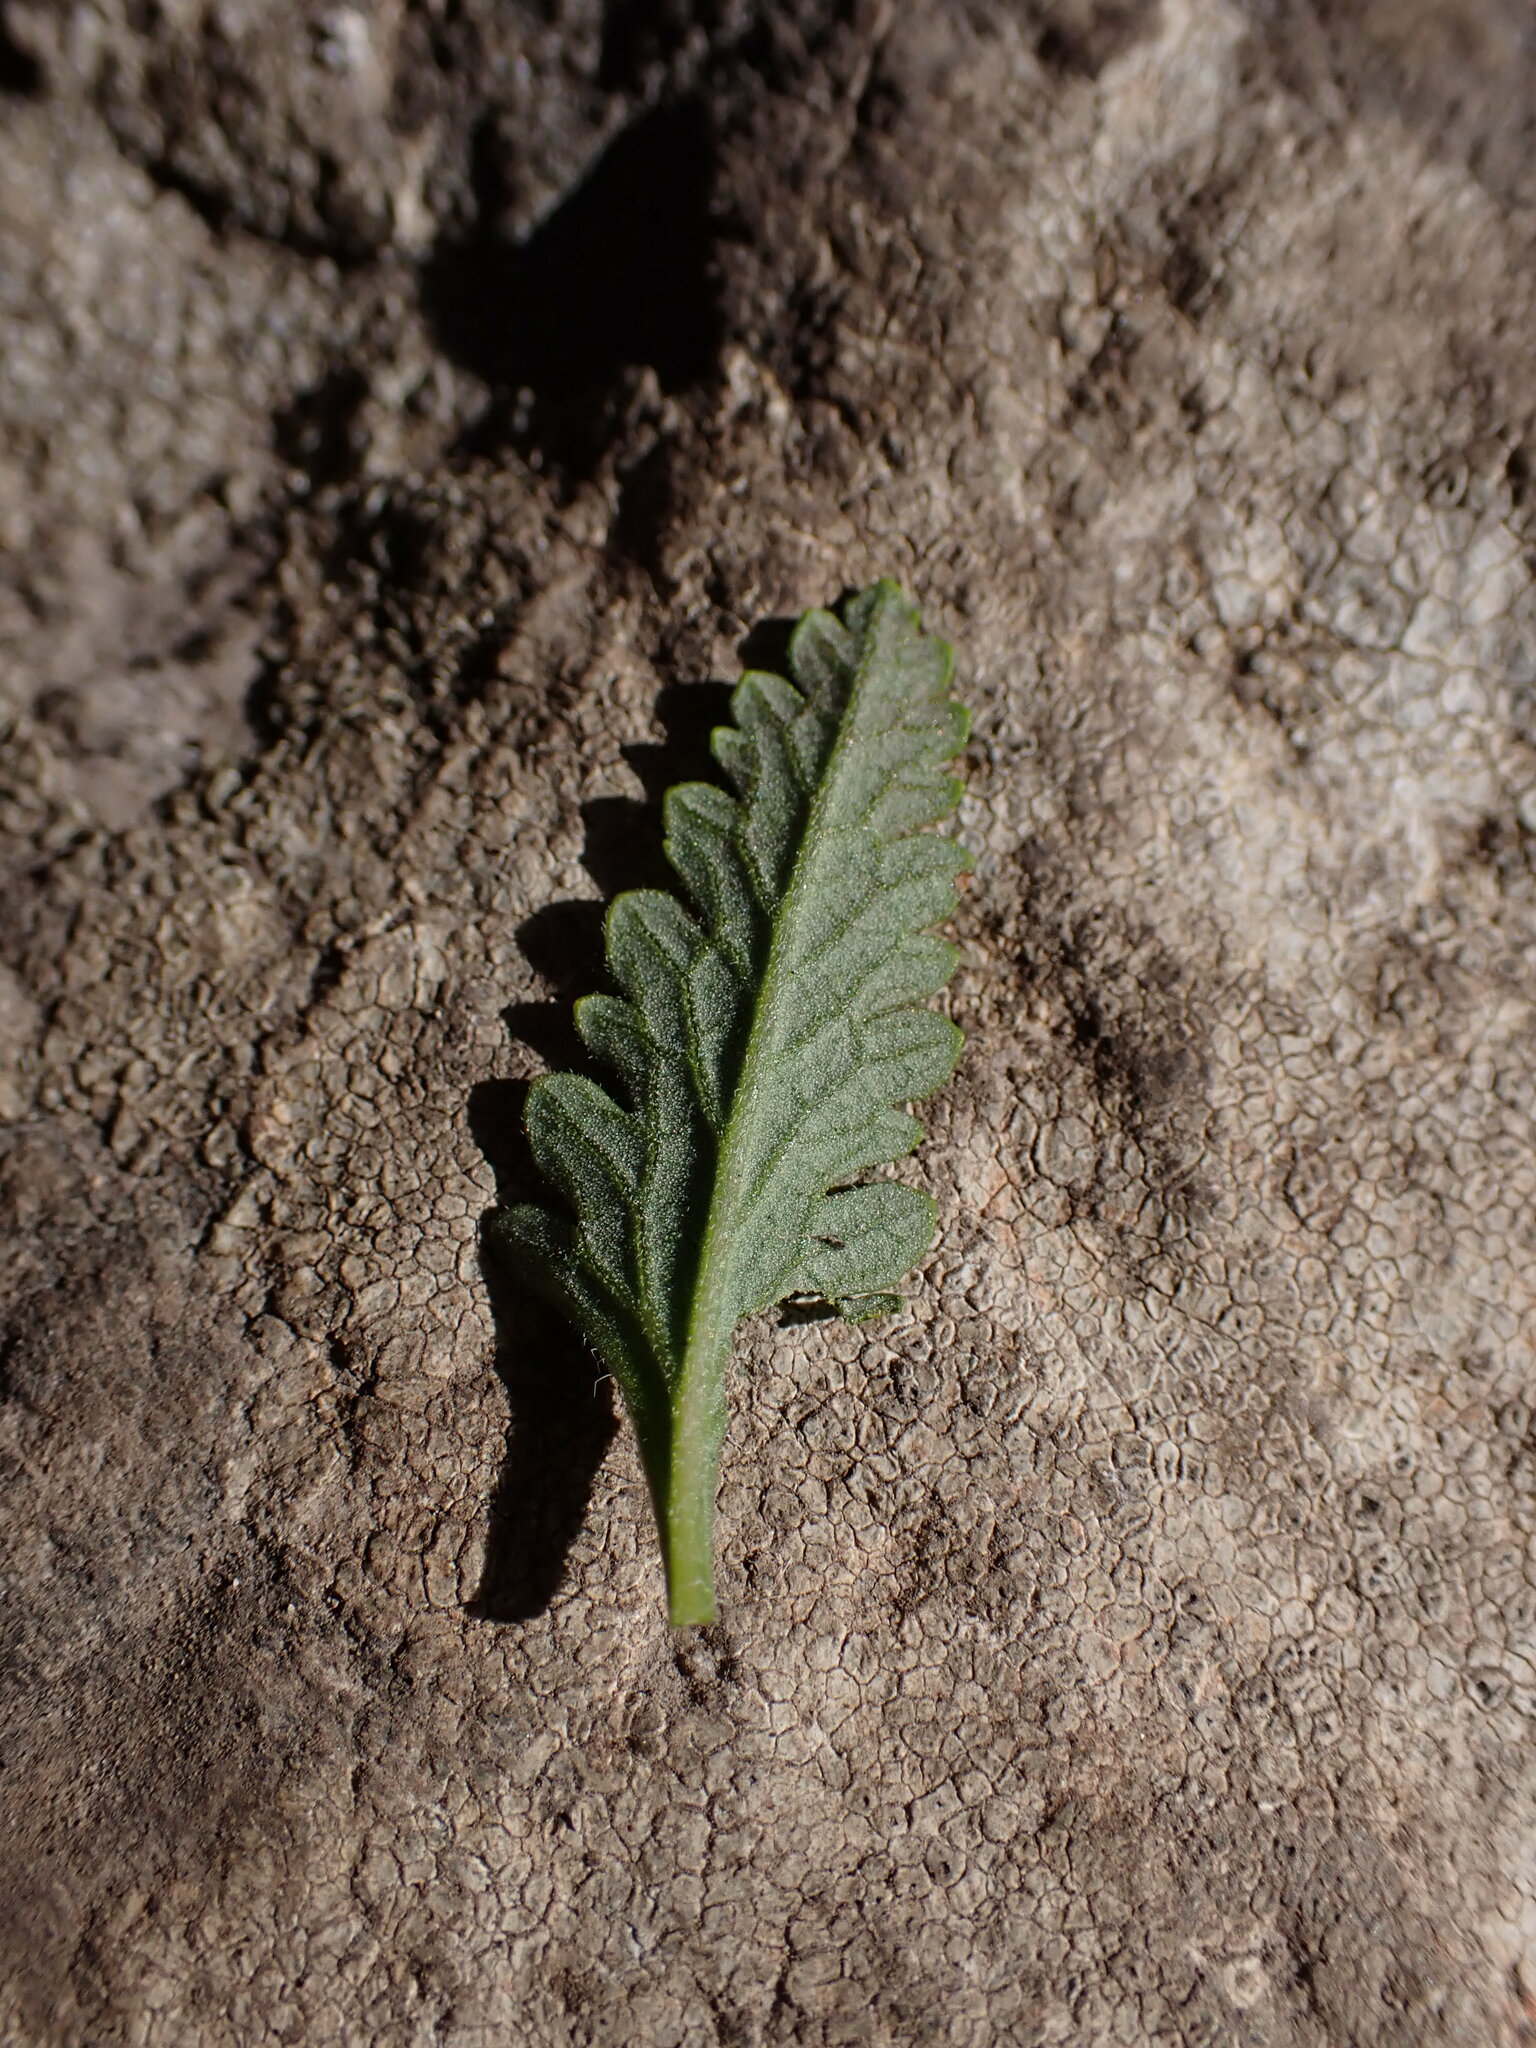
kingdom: Plantae
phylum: Tracheophyta
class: Magnoliopsida
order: Lamiales
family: Lamiaceae
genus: Teucrium
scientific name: Teucrium chamaedrys
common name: Wall germander
